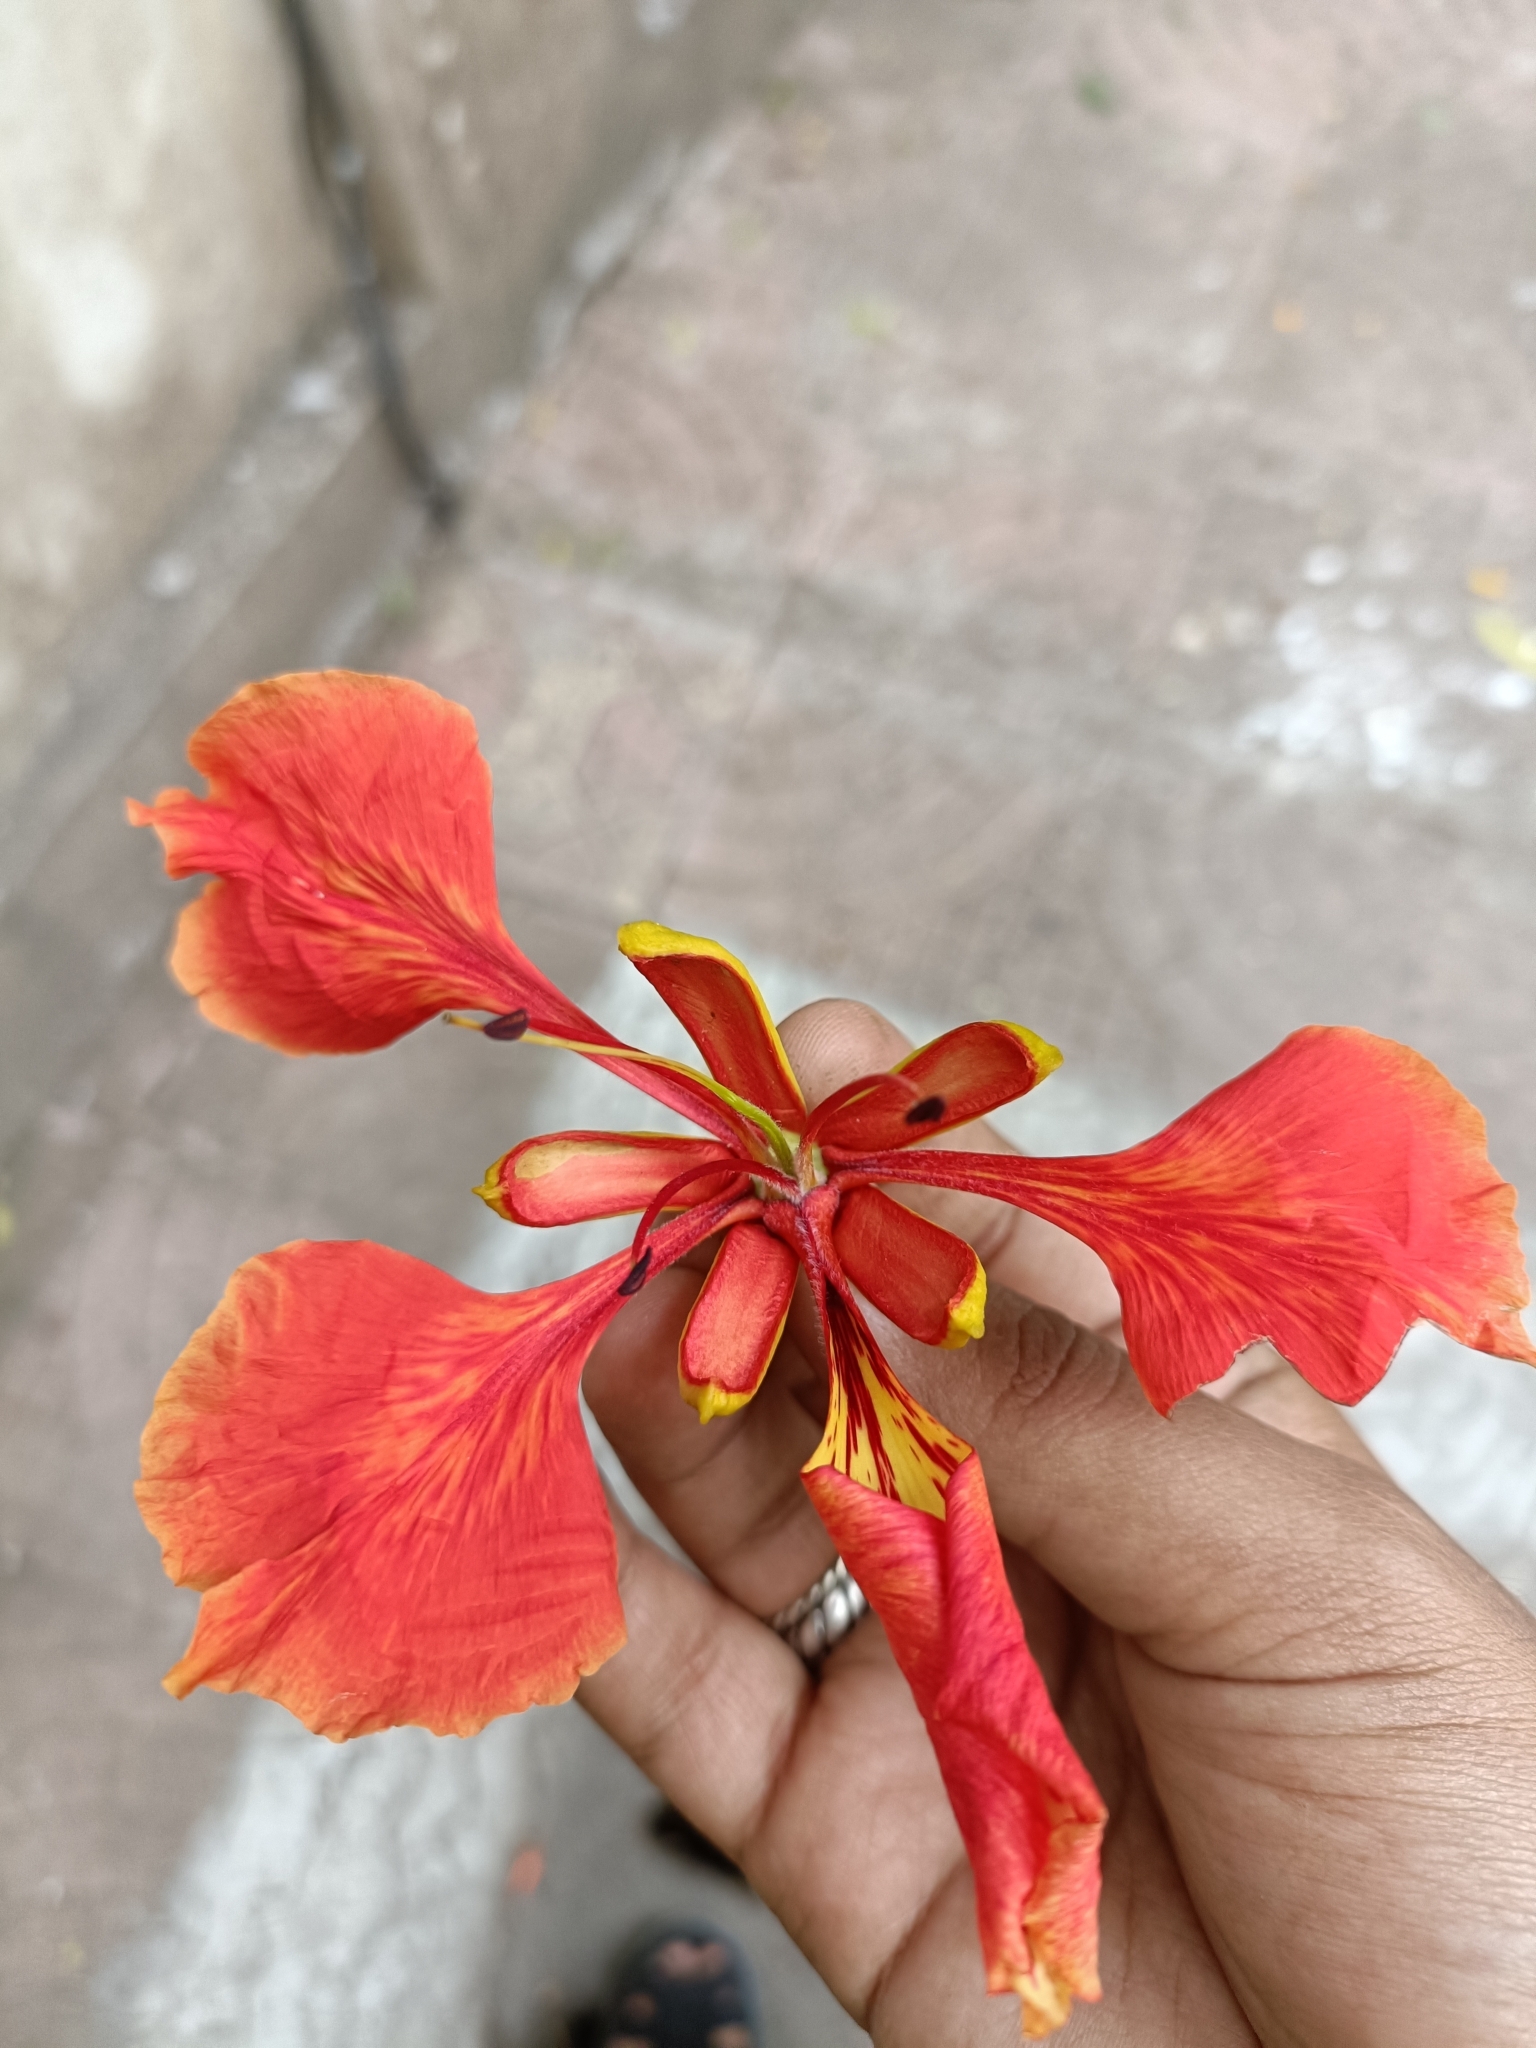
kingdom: Plantae
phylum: Tracheophyta
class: Magnoliopsida
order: Fabales
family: Fabaceae
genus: Delonix
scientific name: Delonix regia
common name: Royal poinciana
